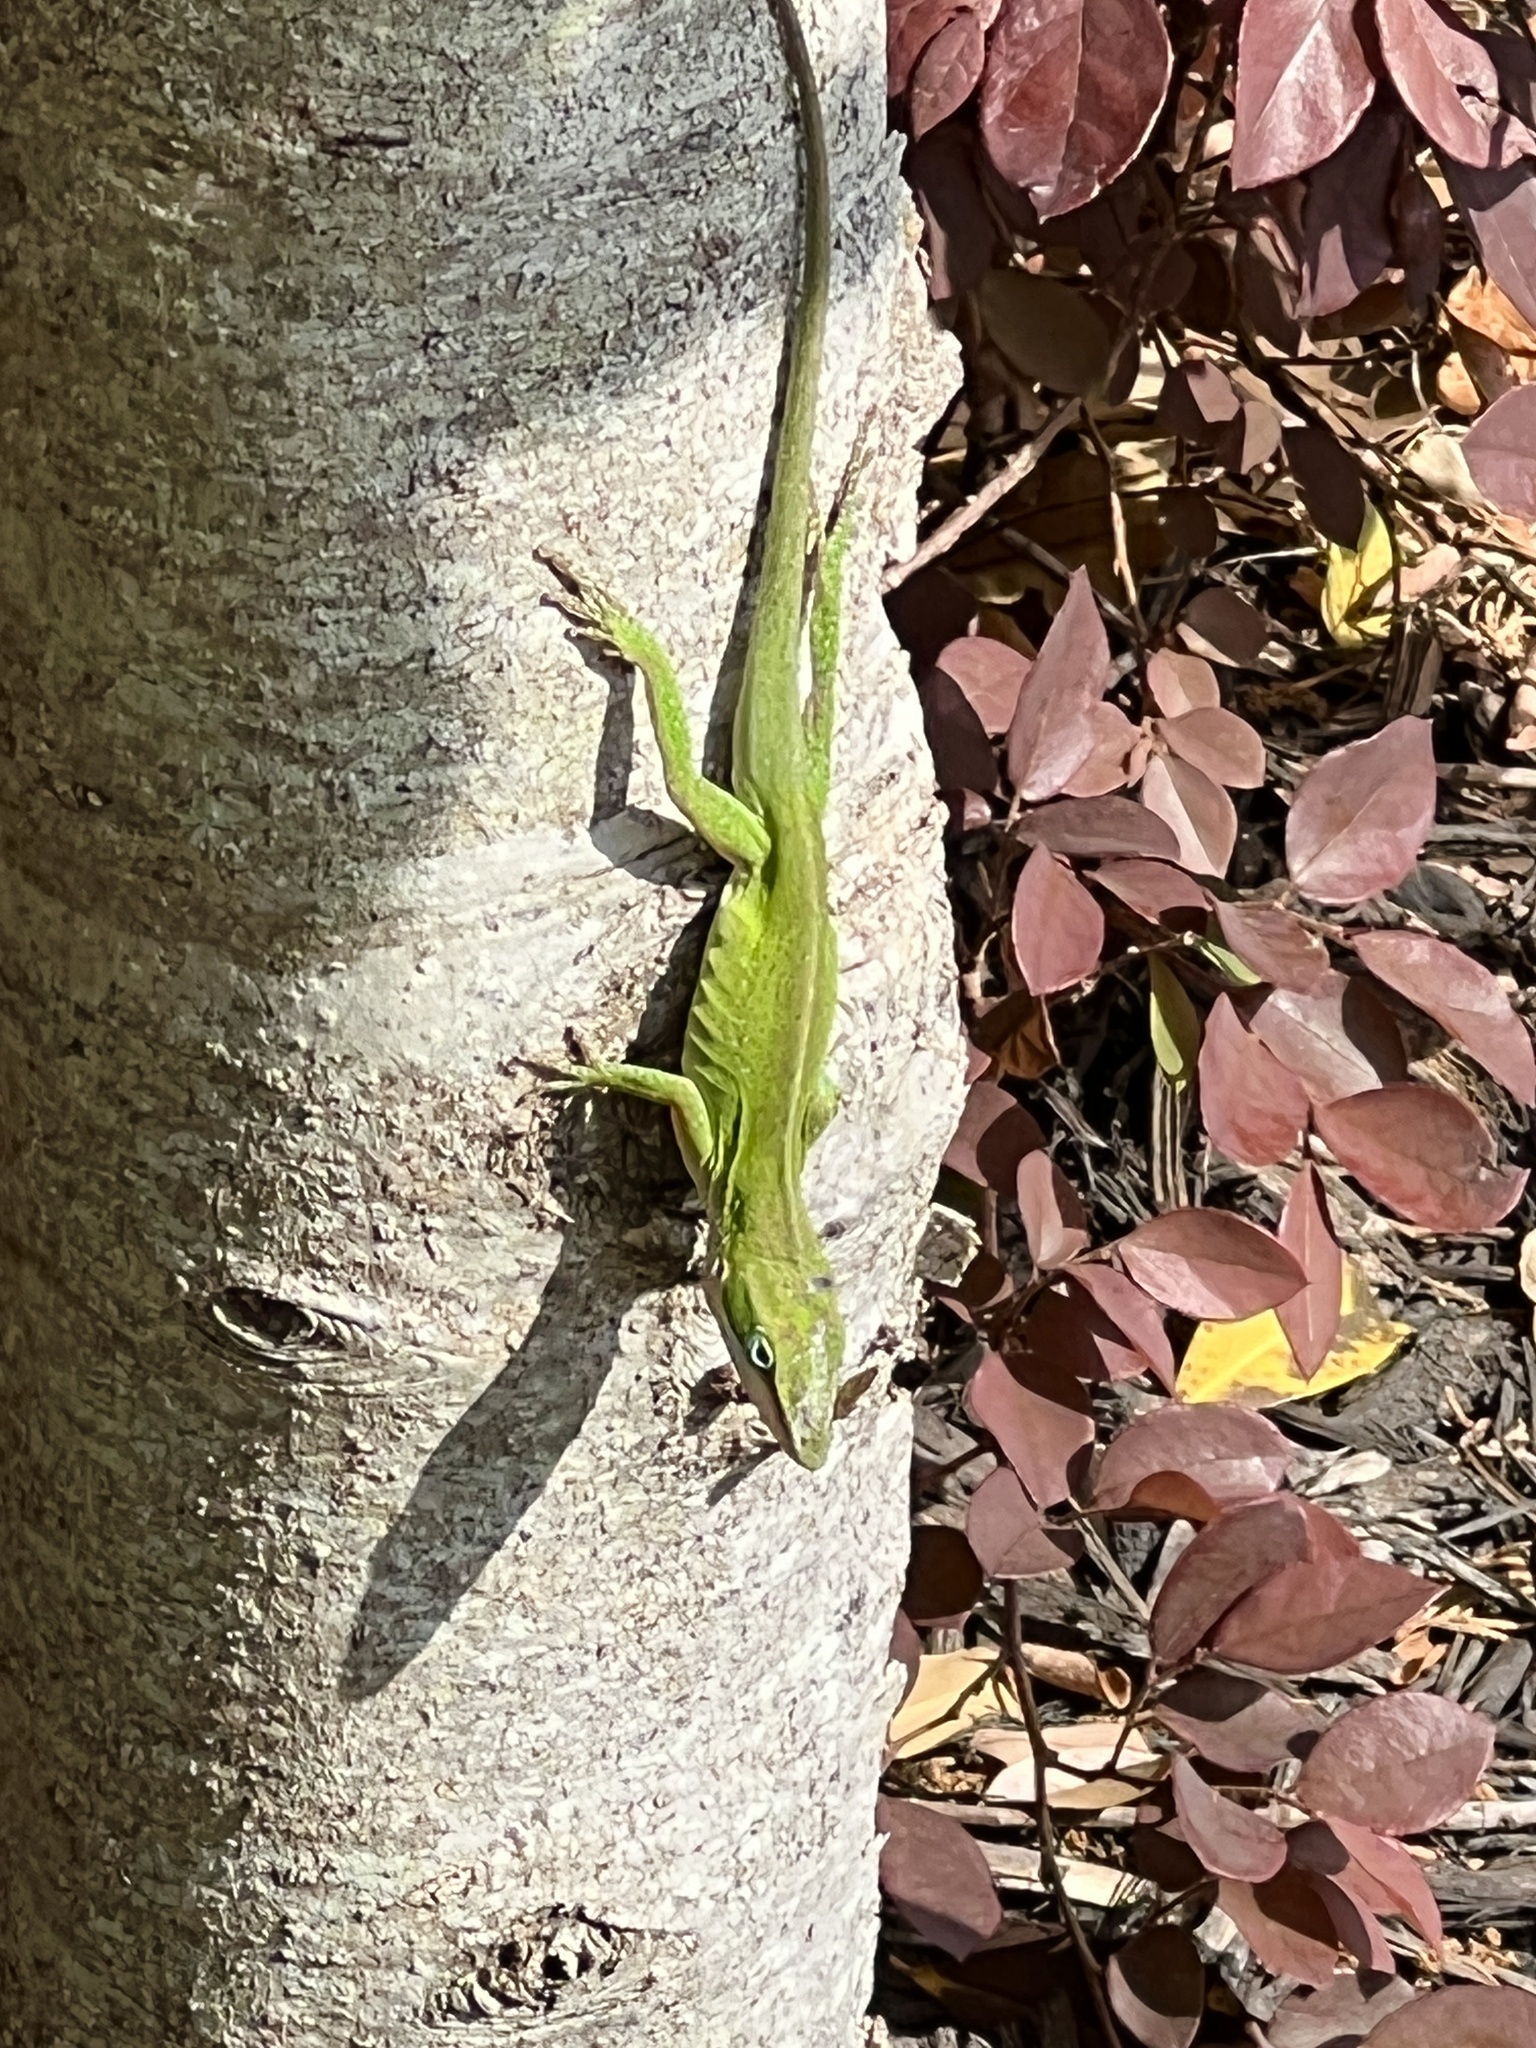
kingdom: Animalia
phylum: Chordata
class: Squamata
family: Dactyloidae
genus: Anolis
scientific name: Anolis carolinensis
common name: Green anole
